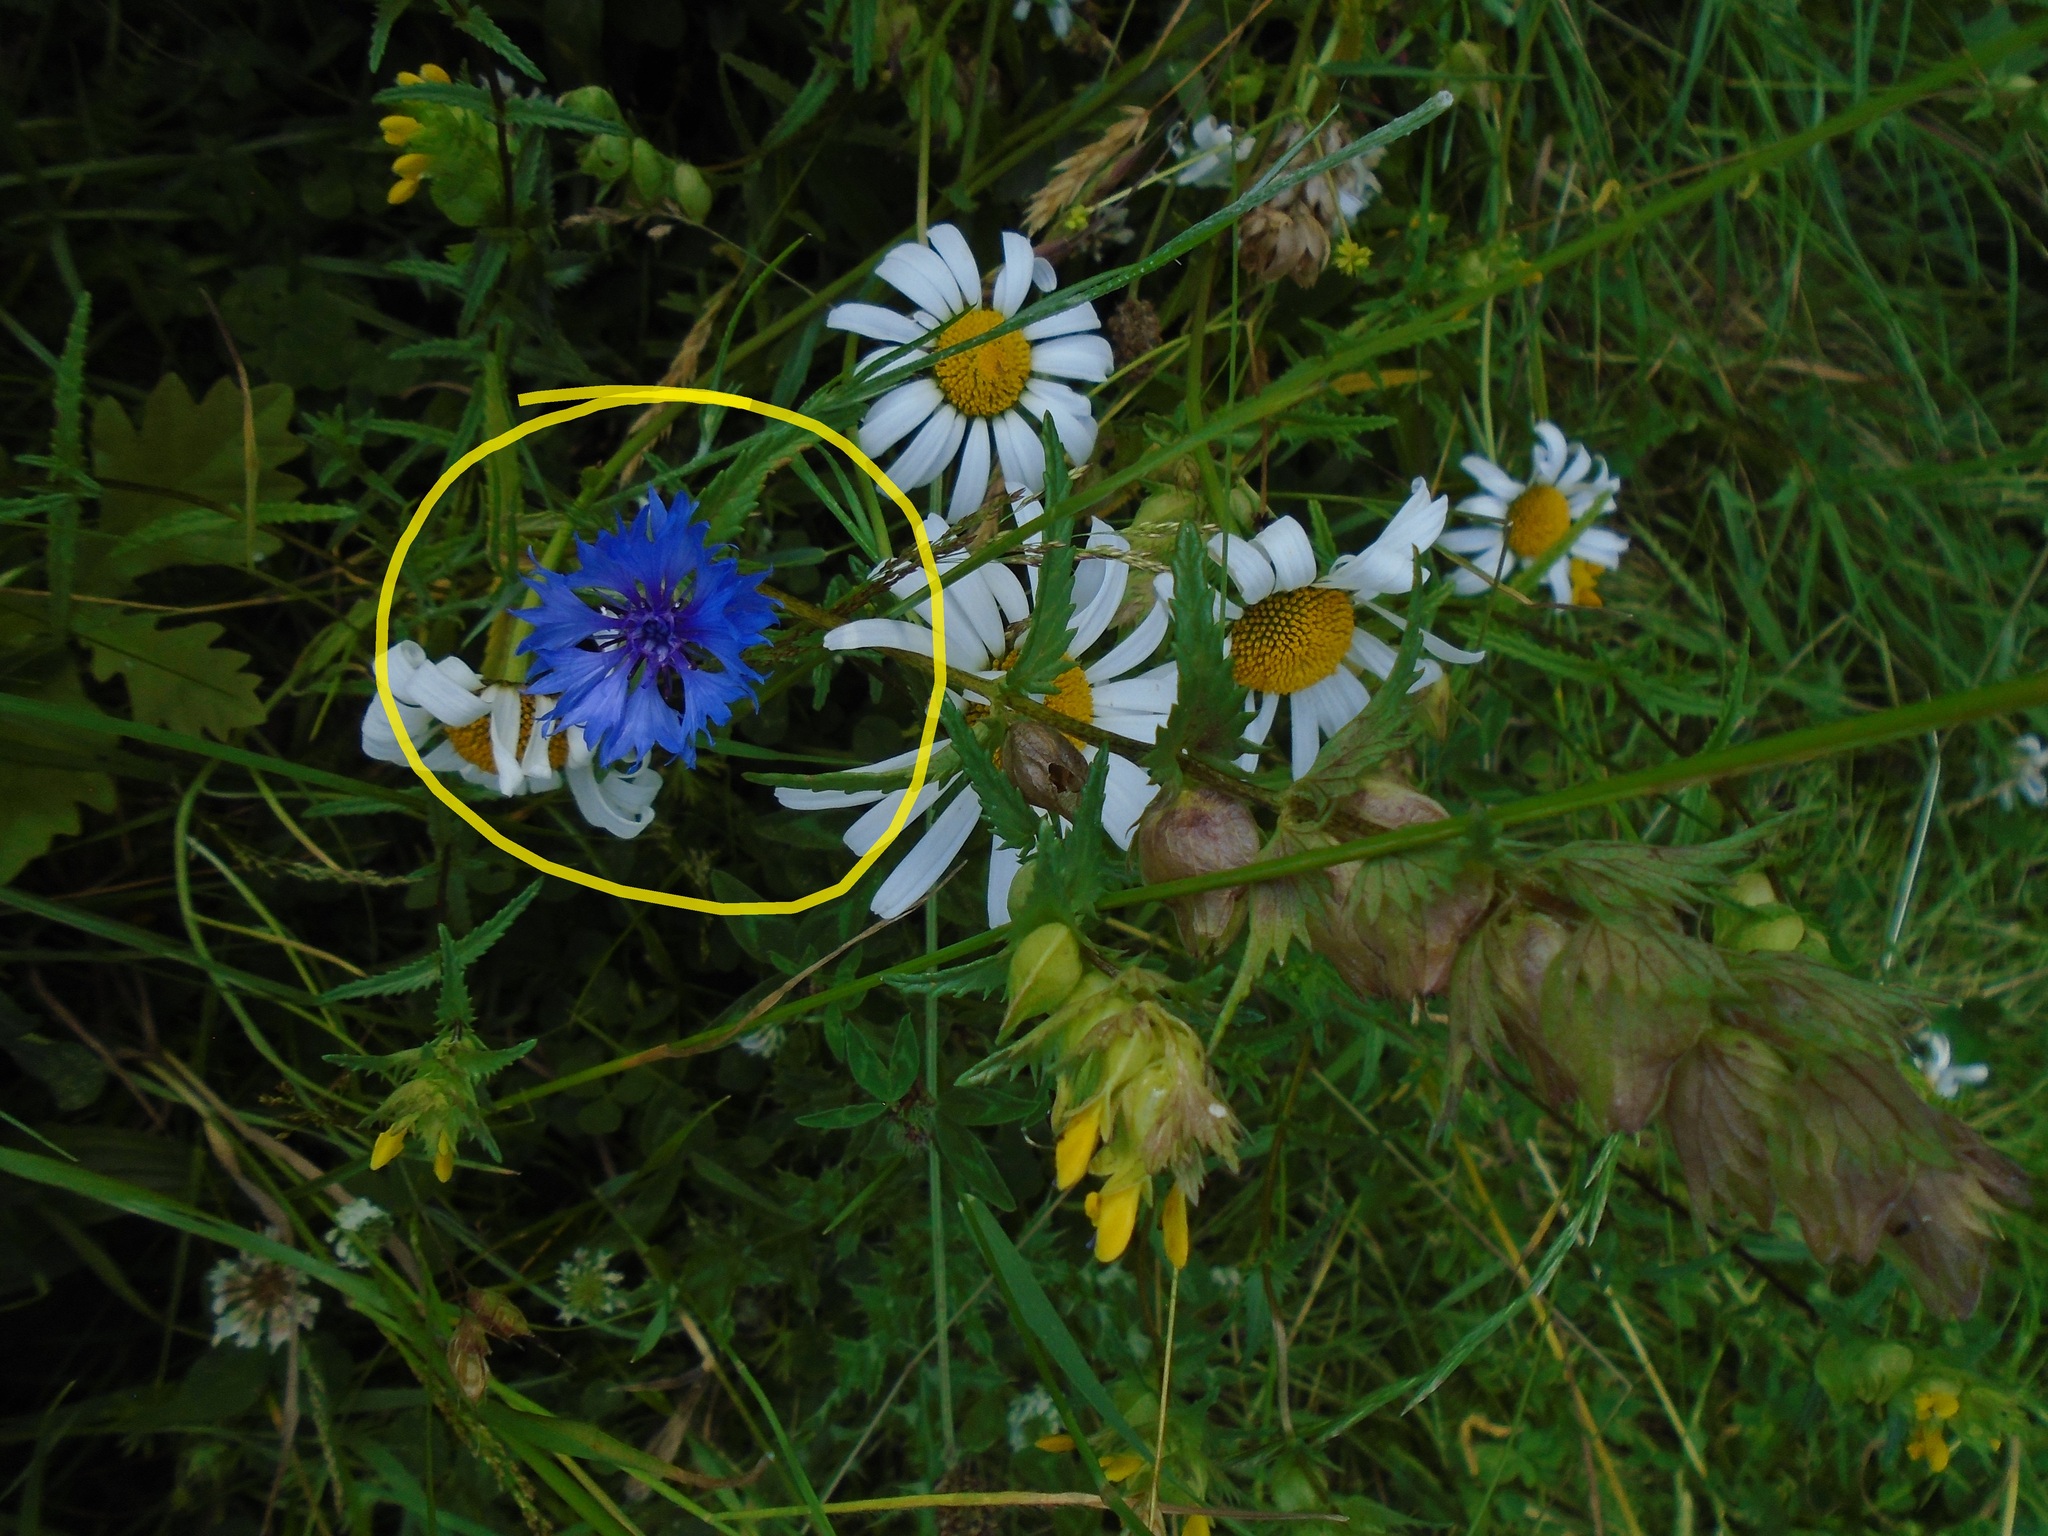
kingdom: Plantae
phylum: Tracheophyta
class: Magnoliopsida
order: Asterales
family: Asteraceae
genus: Centaurea
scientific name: Centaurea cyanus
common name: Cornflower
